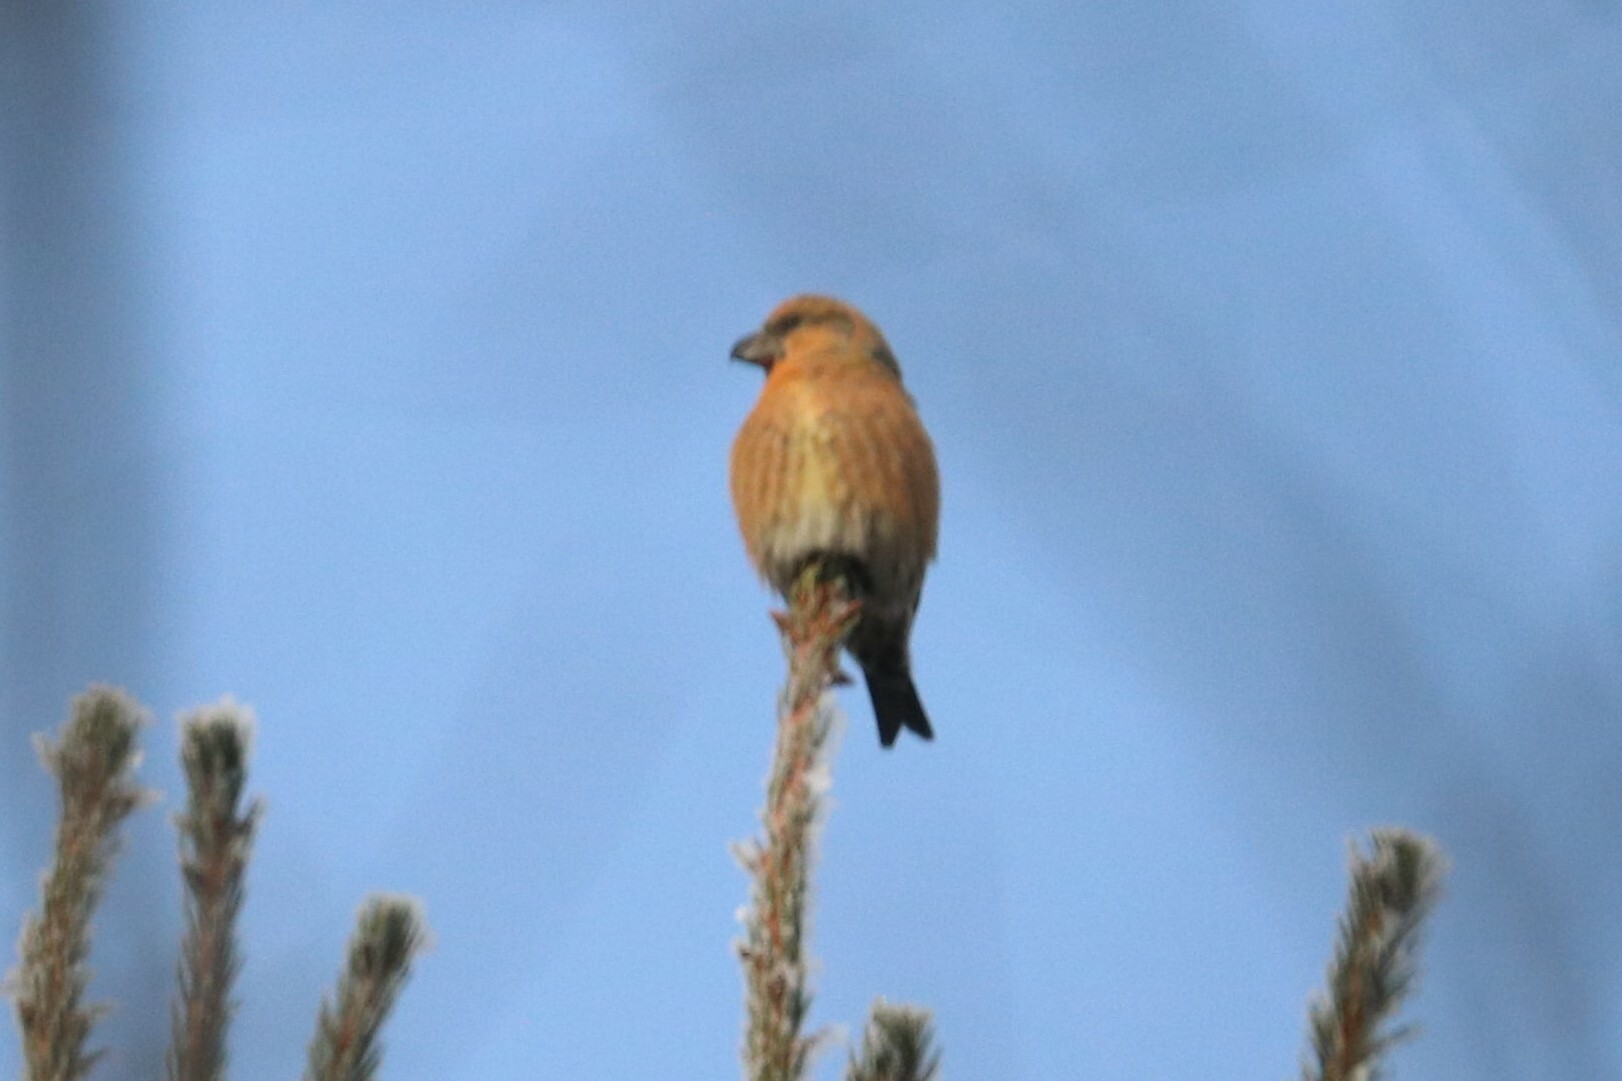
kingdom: Animalia
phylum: Chordata
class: Aves
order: Passeriformes
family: Fringillidae
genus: Loxia
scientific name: Loxia curvirostra
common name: Red crossbill
